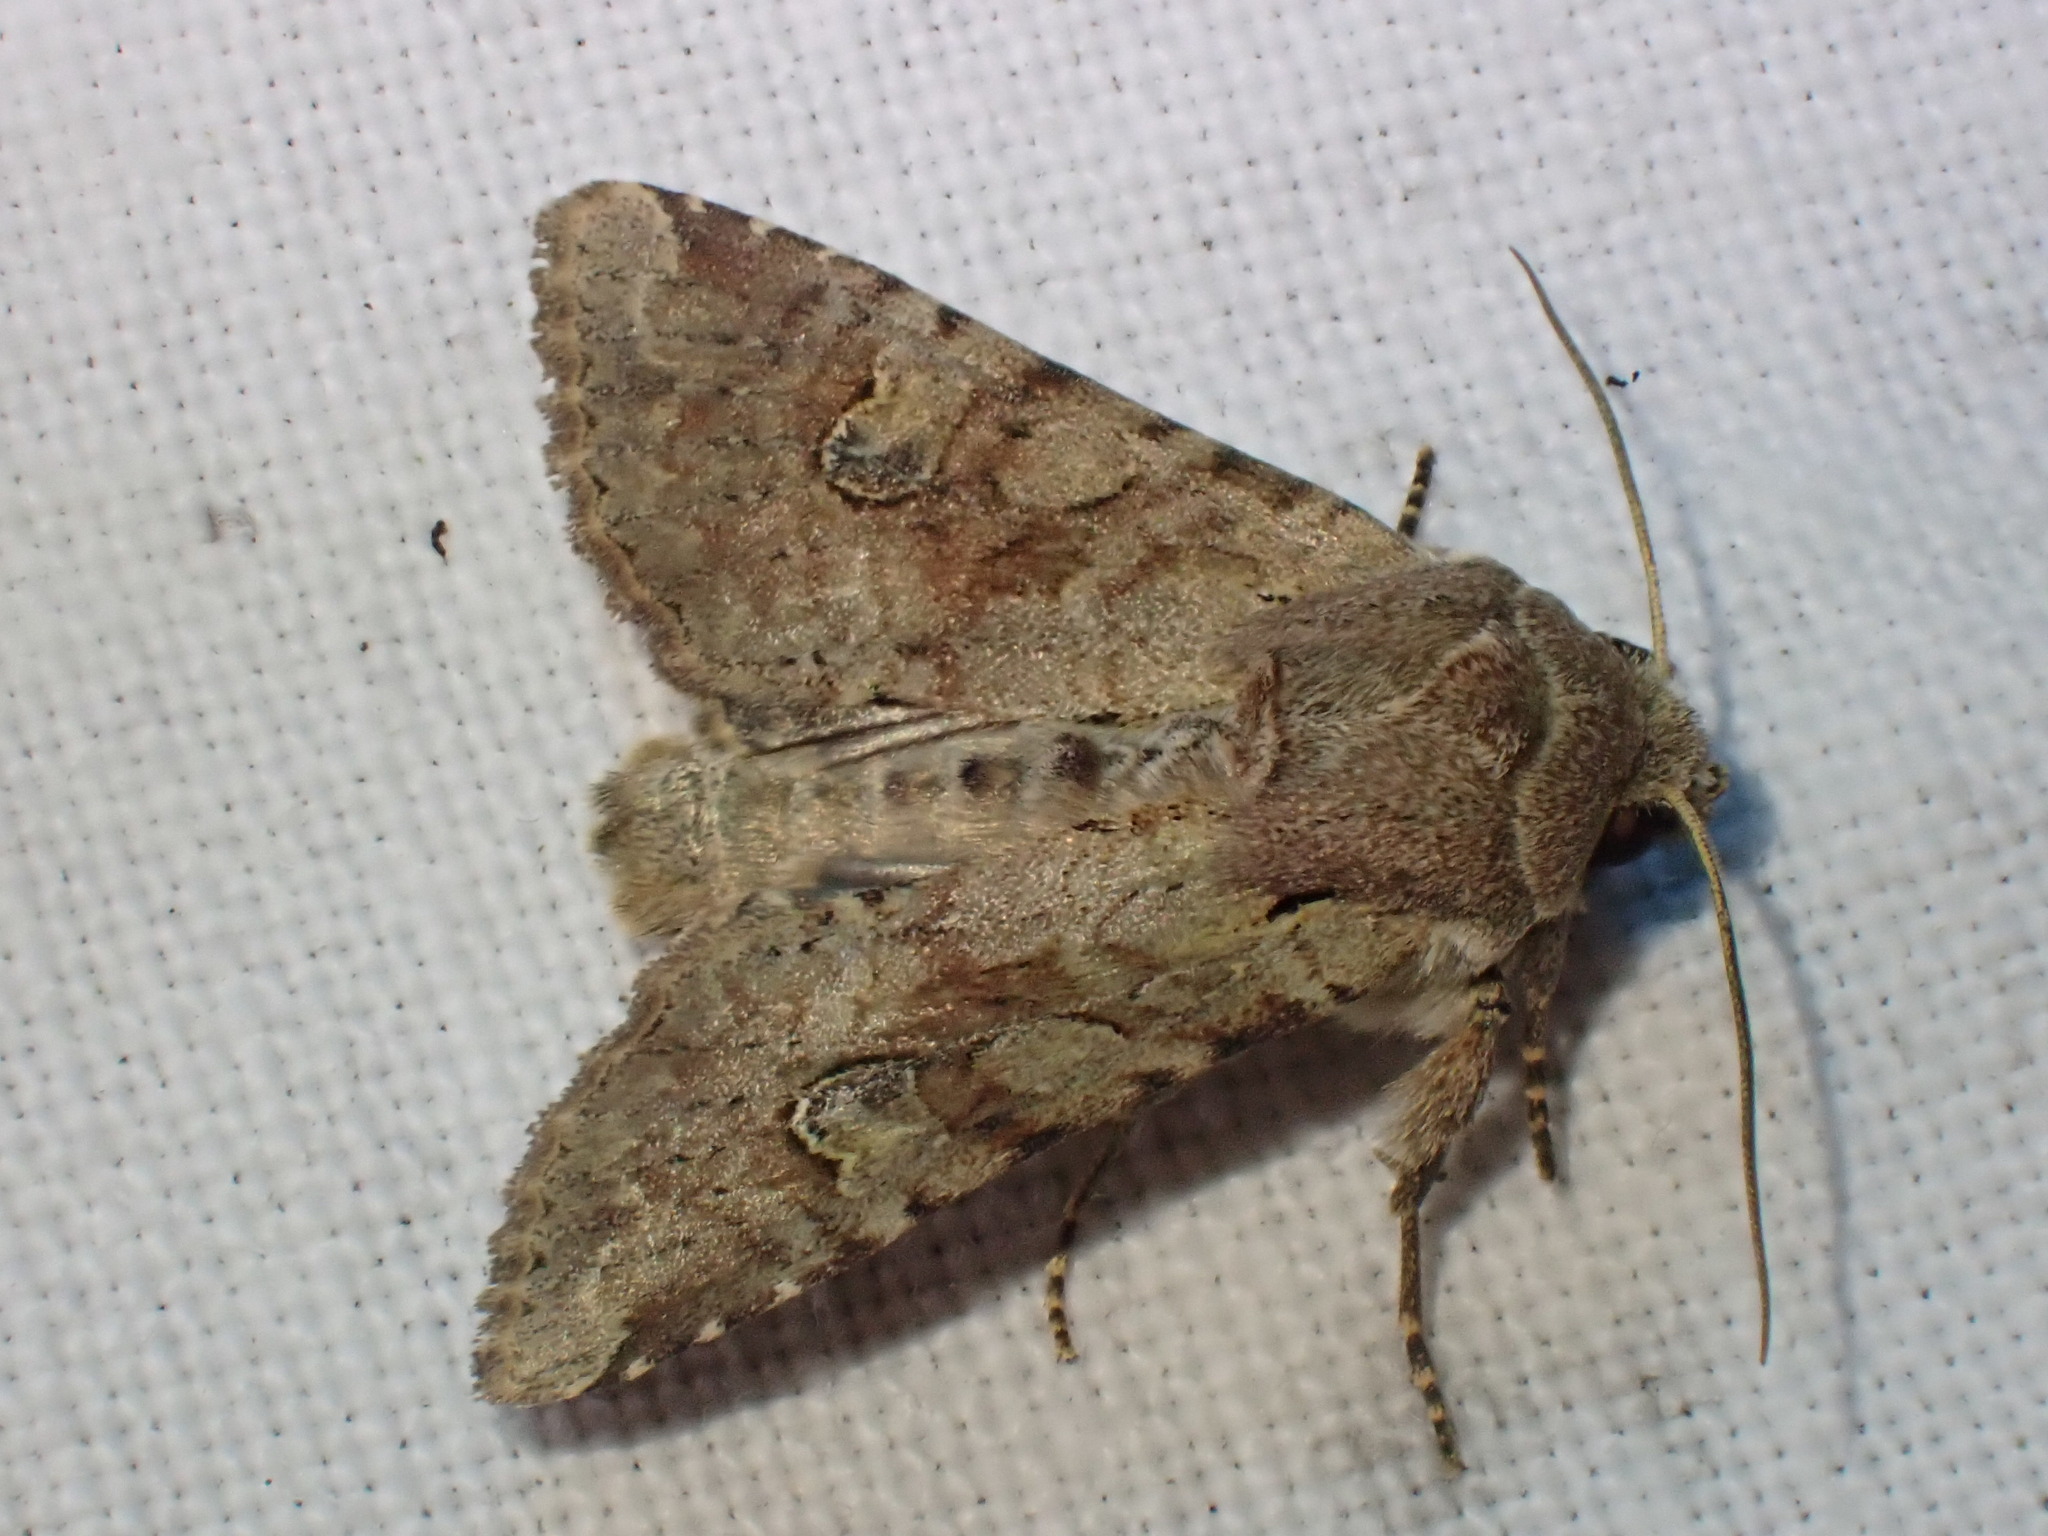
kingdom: Animalia
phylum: Arthropoda
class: Insecta
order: Lepidoptera
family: Noctuidae
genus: Apamea
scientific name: Apamea sordens
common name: Rustic shoulder-knot
